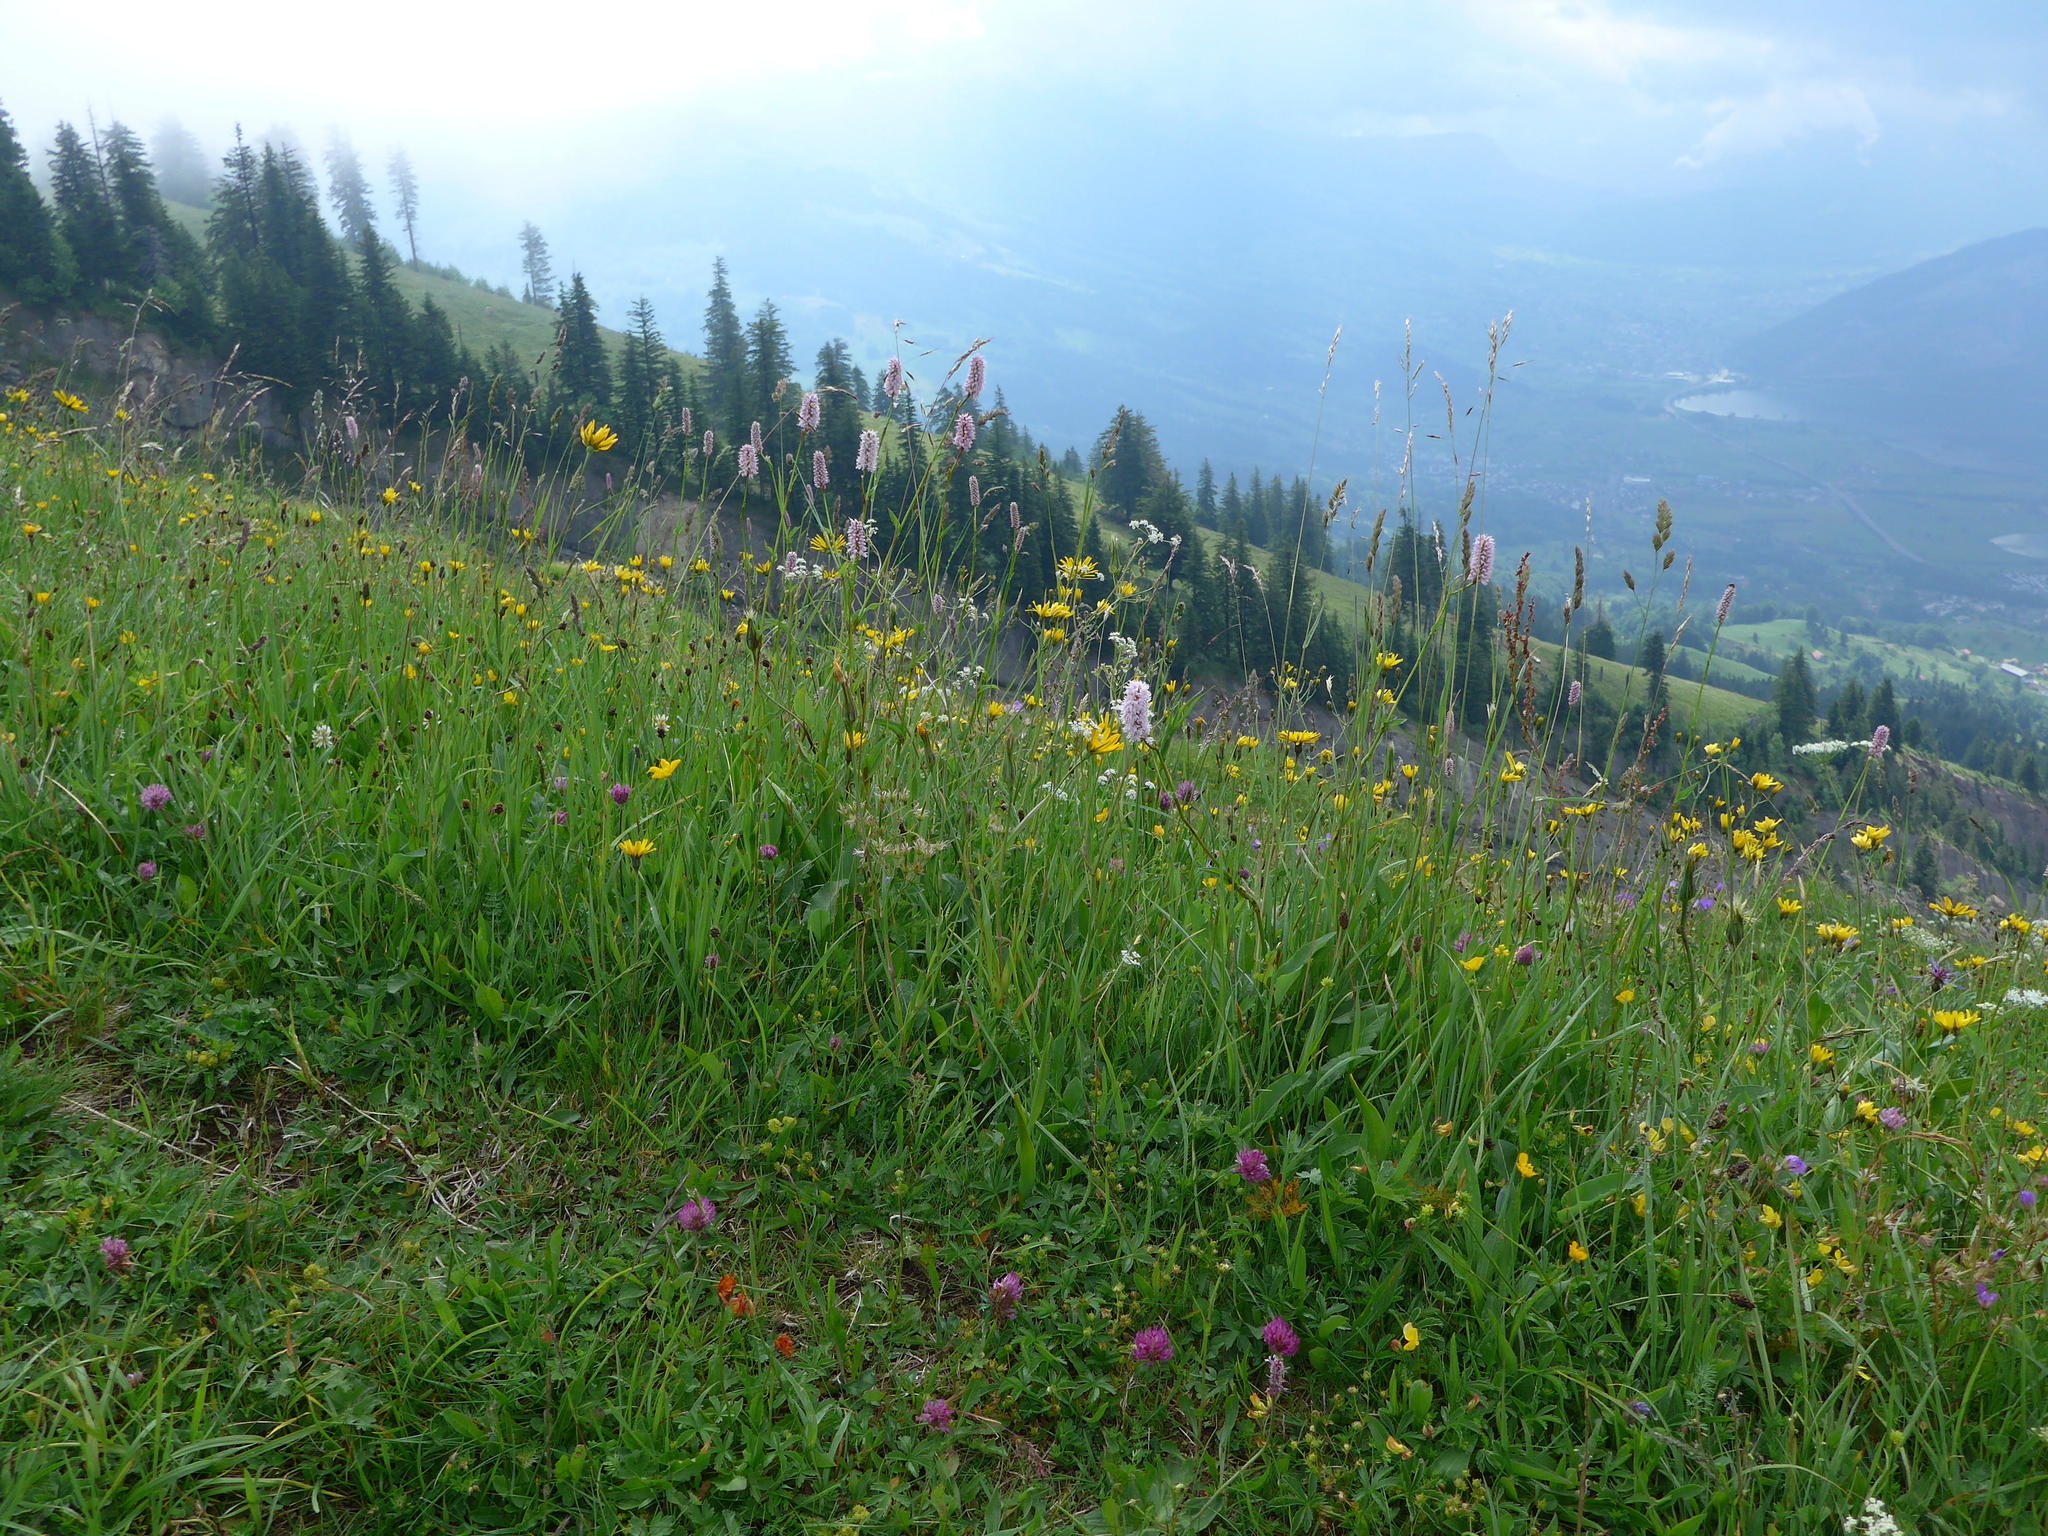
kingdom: Plantae
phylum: Tracheophyta
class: Magnoliopsida
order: Caryophyllales
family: Polygonaceae
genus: Bistorta
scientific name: Bistorta officinalis
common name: Common bistort
